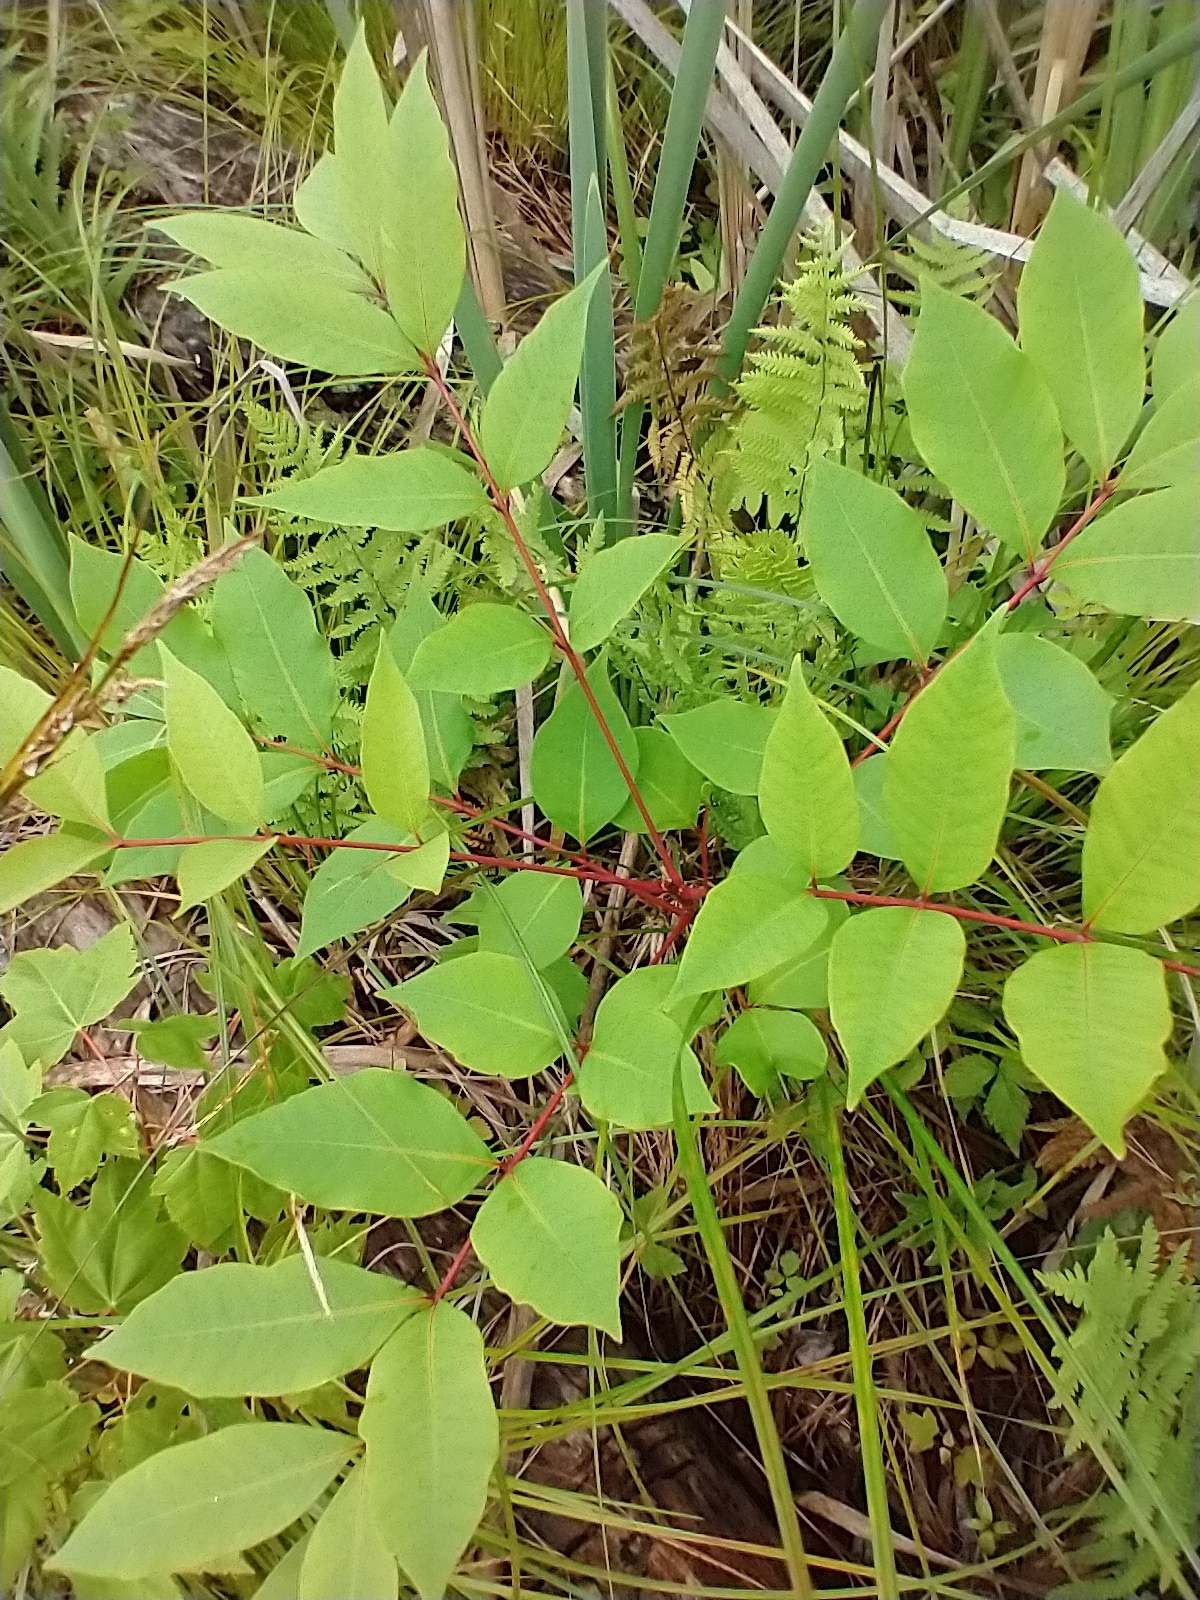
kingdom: Plantae
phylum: Tracheophyta
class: Magnoliopsida
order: Sapindales
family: Anacardiaceae
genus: Toxicodendron
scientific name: Toxicodendron vernix
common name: Poison sumac
